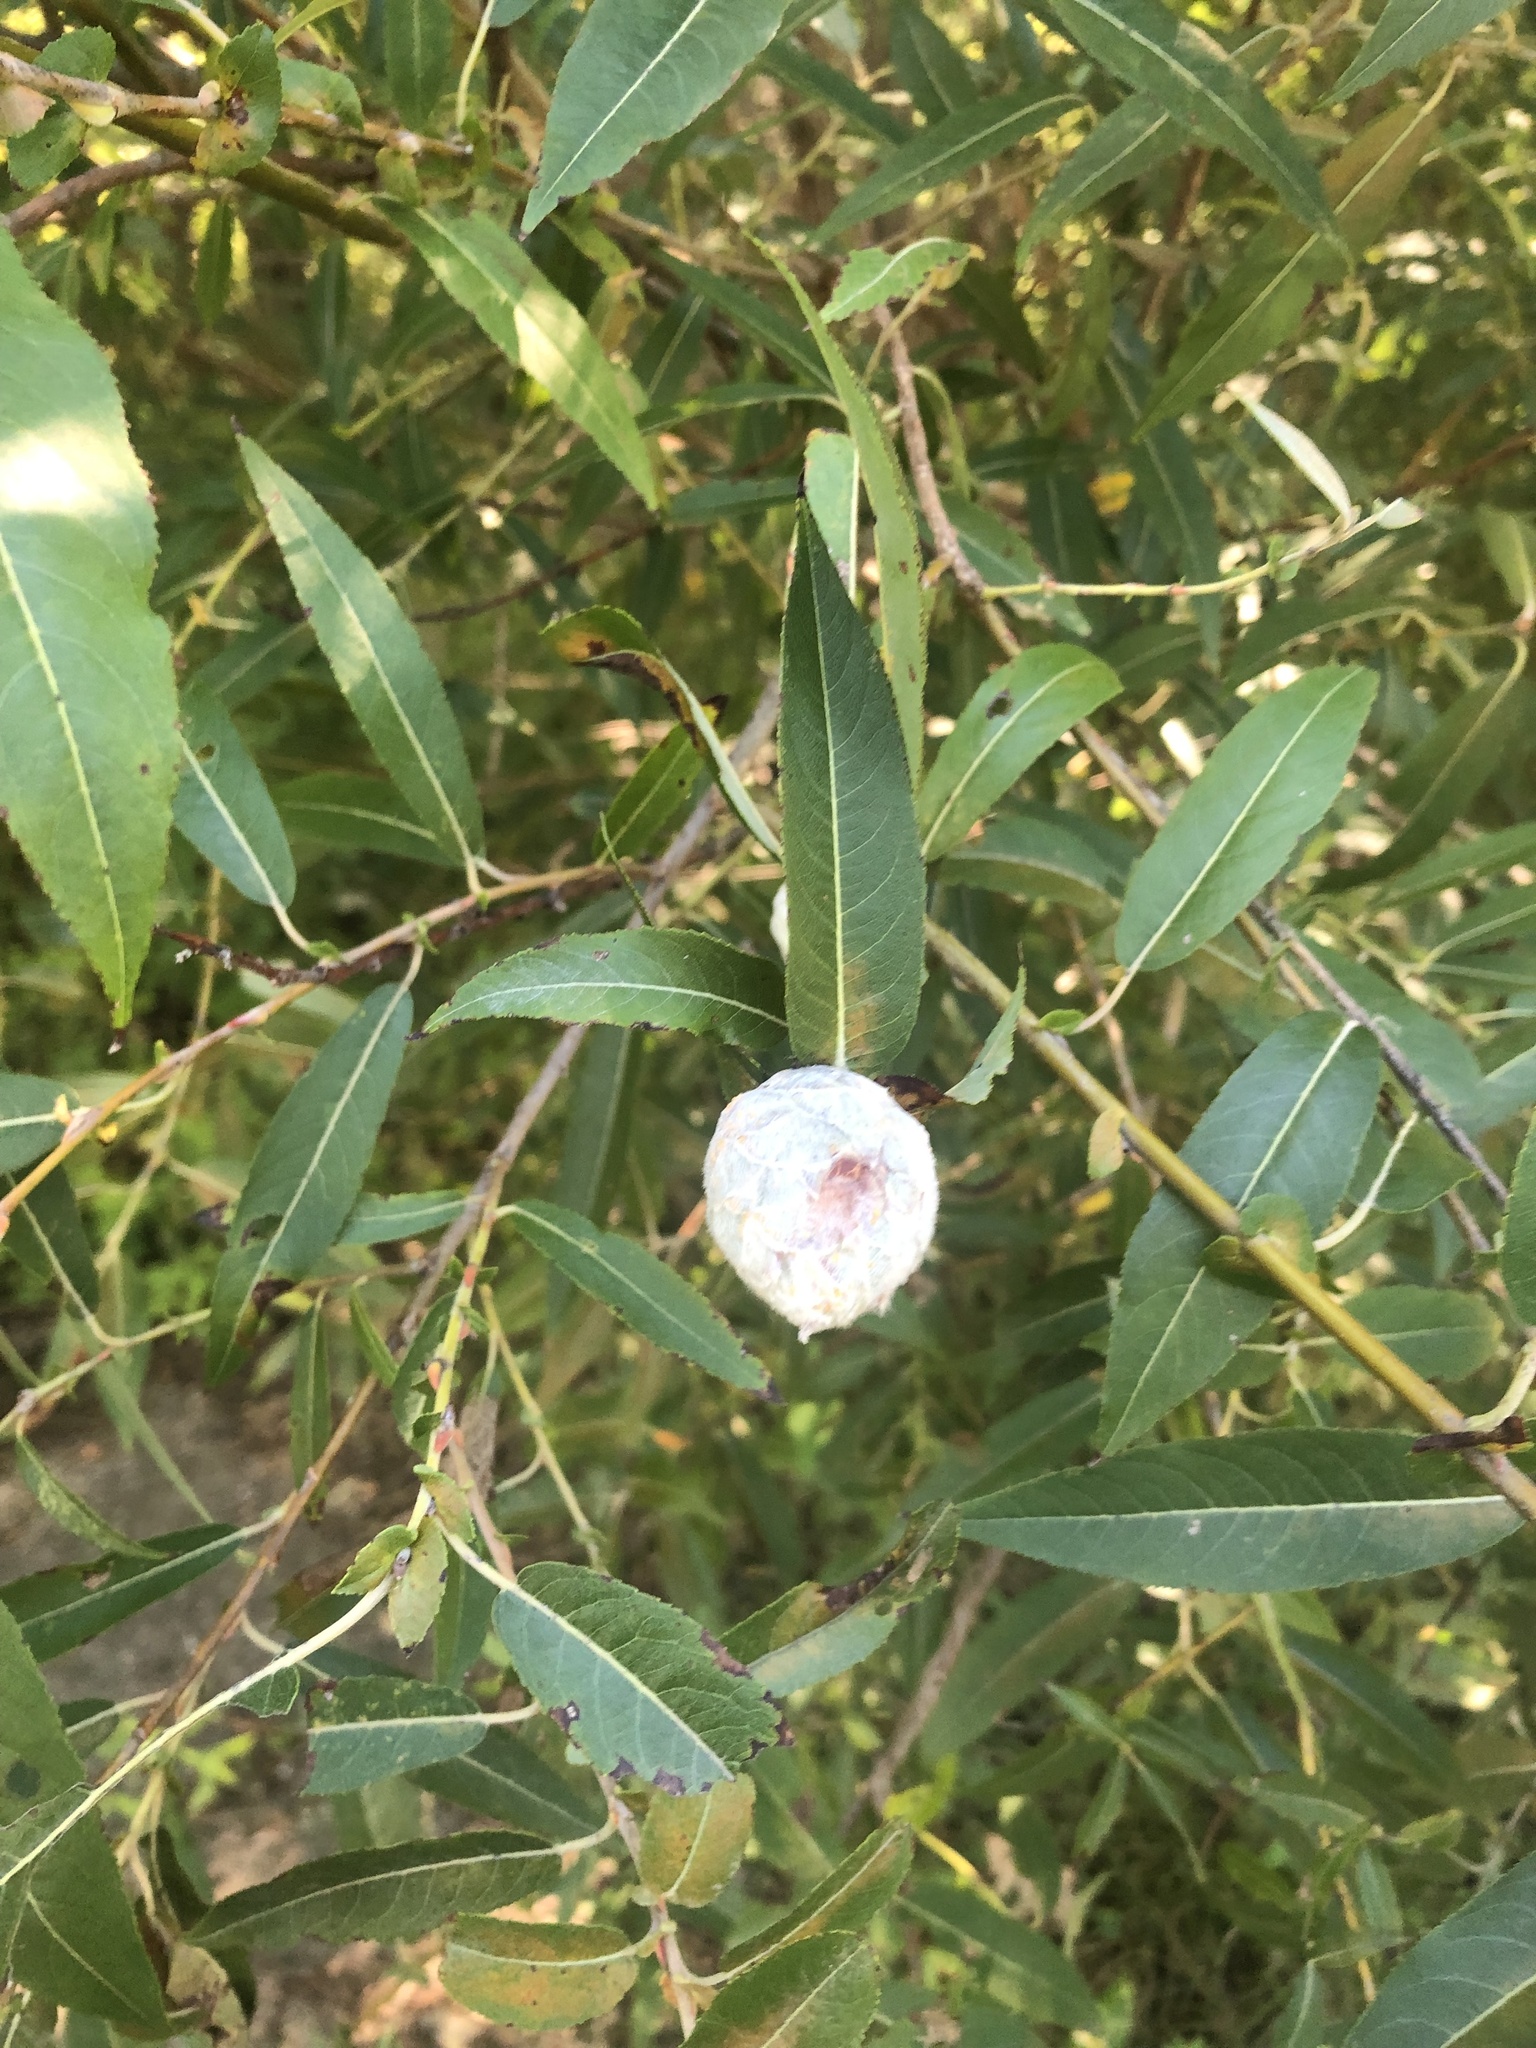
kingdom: Animalia
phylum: Arthropoda
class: Insecta
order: Diptera
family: Cecidomyiidae
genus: Rabdophaga
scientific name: Rabdophaga strobiloides
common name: Willow pinecone gall midge
